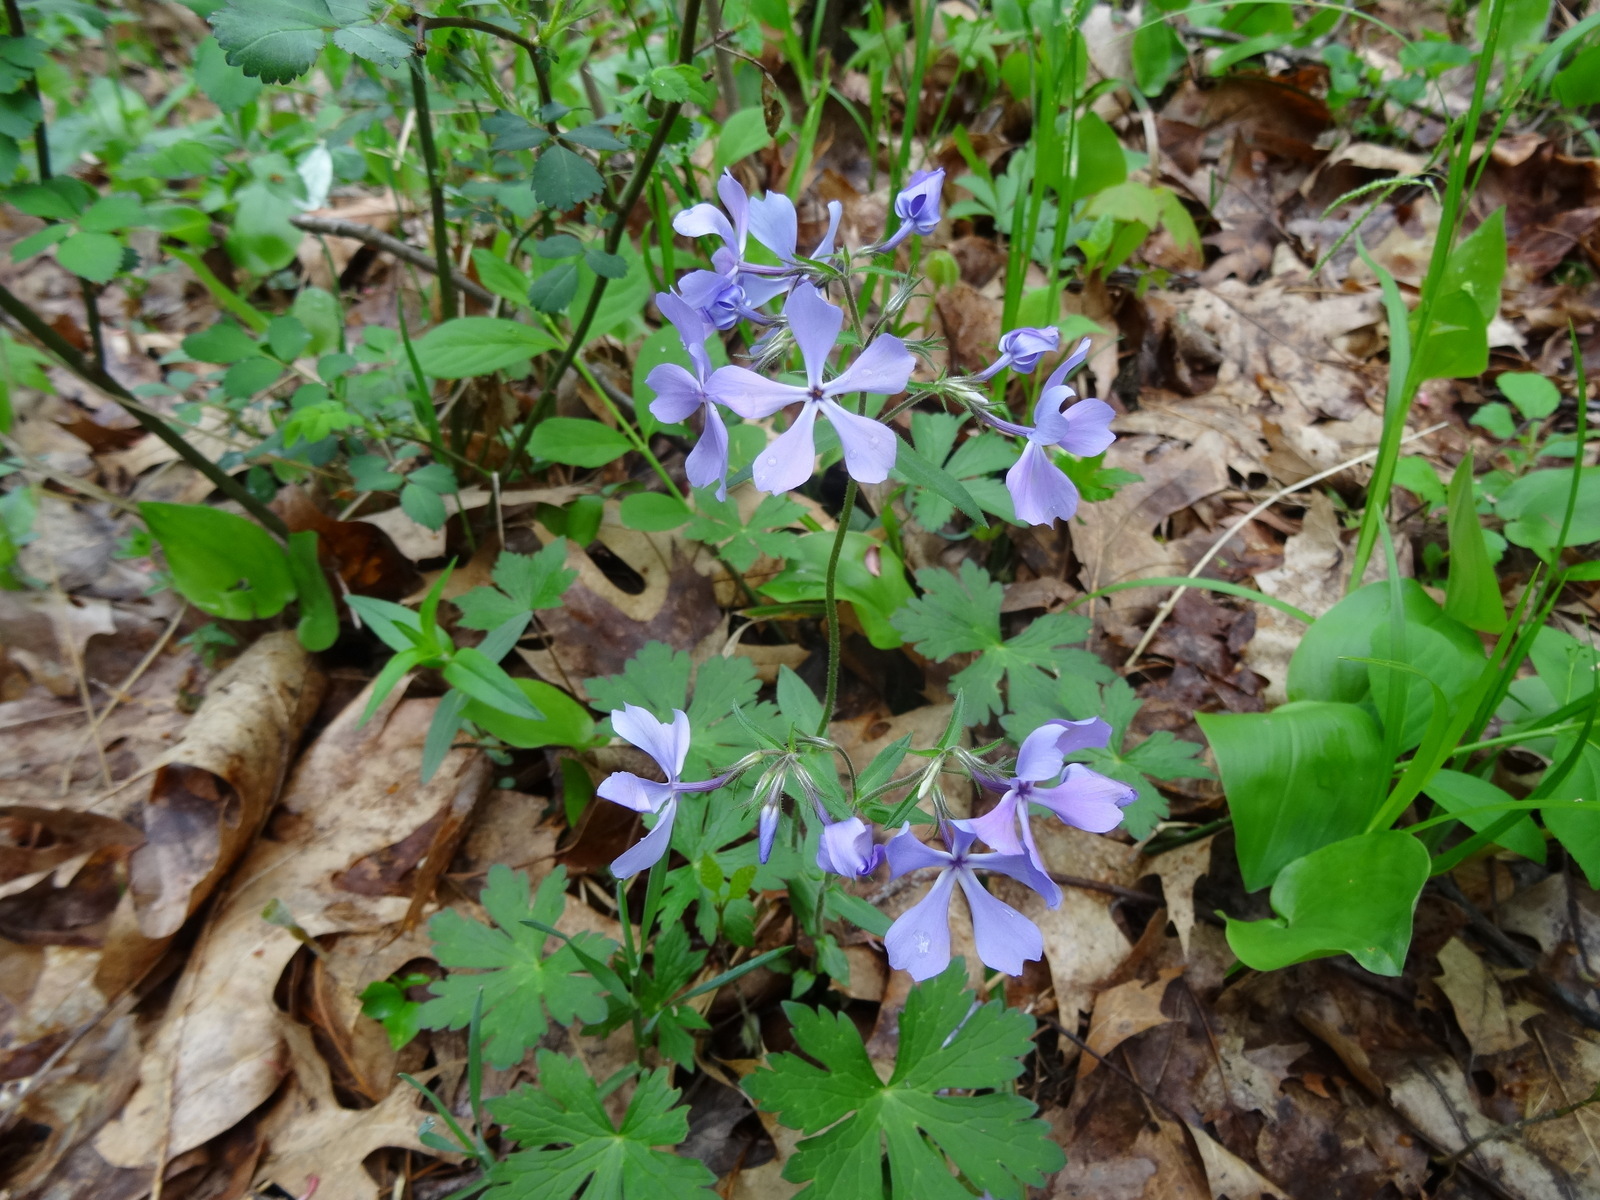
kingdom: Plantae
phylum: Tracheophyta
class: Magnoliopsida
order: Ericales
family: Polemoniaceae
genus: Phlox
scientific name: Phlox divaricata
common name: Blue phlox
